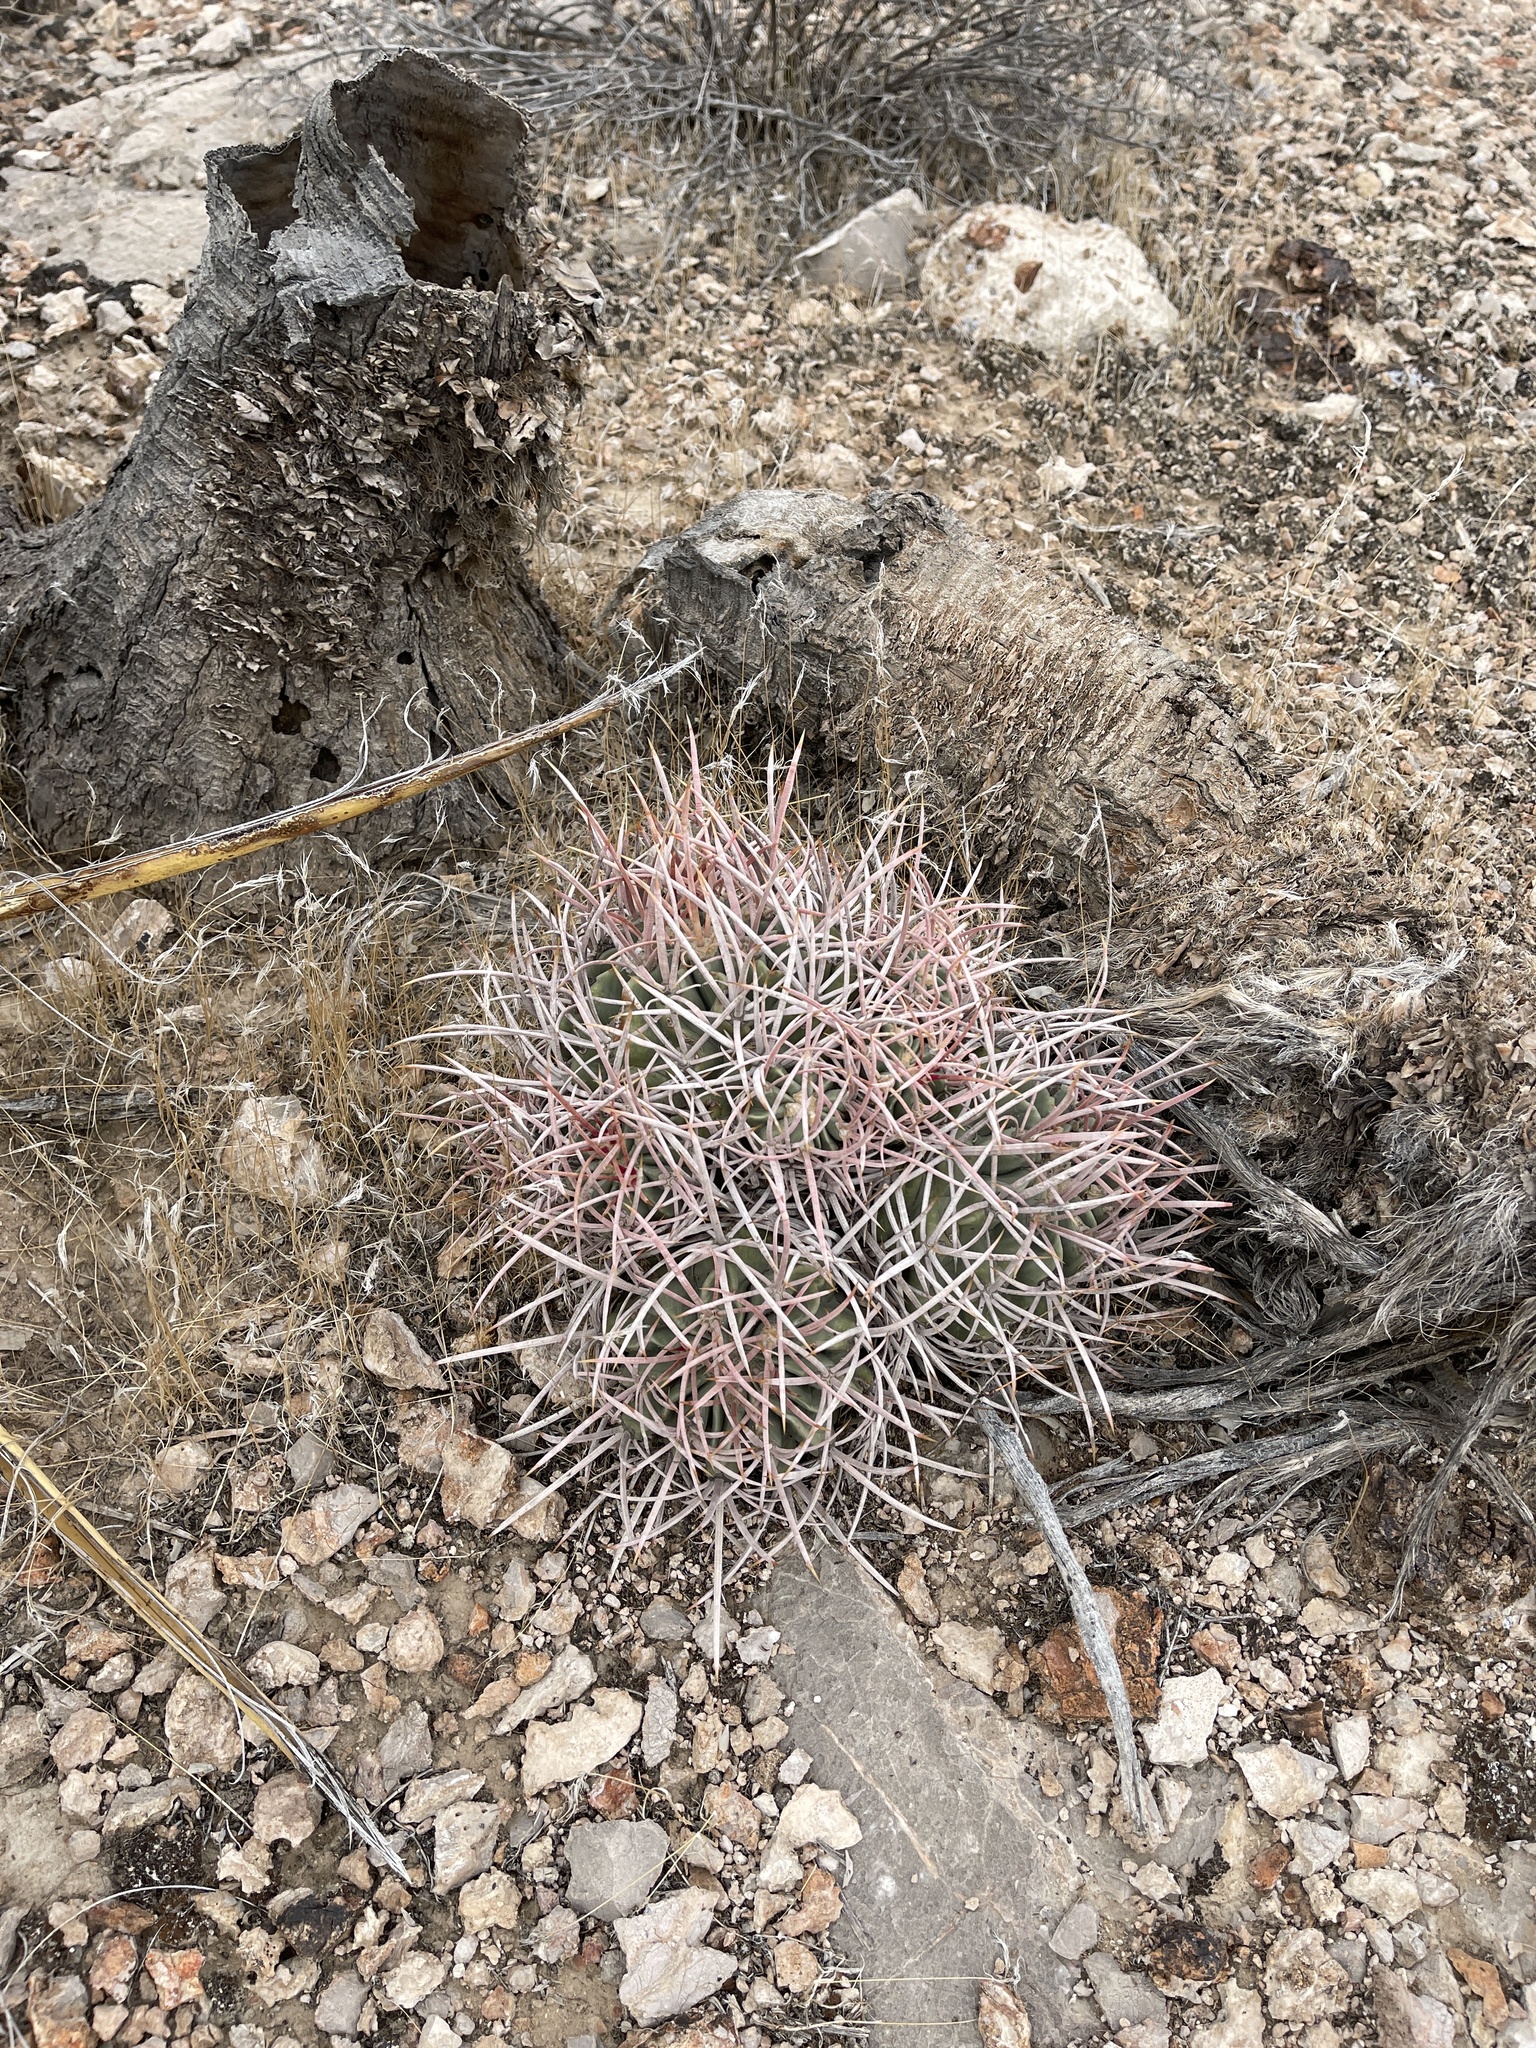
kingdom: Plantae
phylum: Tracheophyta
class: Magnoliopsida
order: Caryophyllales
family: Cactaceae
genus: Echinocactus
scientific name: Echinocactus polycephalus
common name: Cottontop cactus
